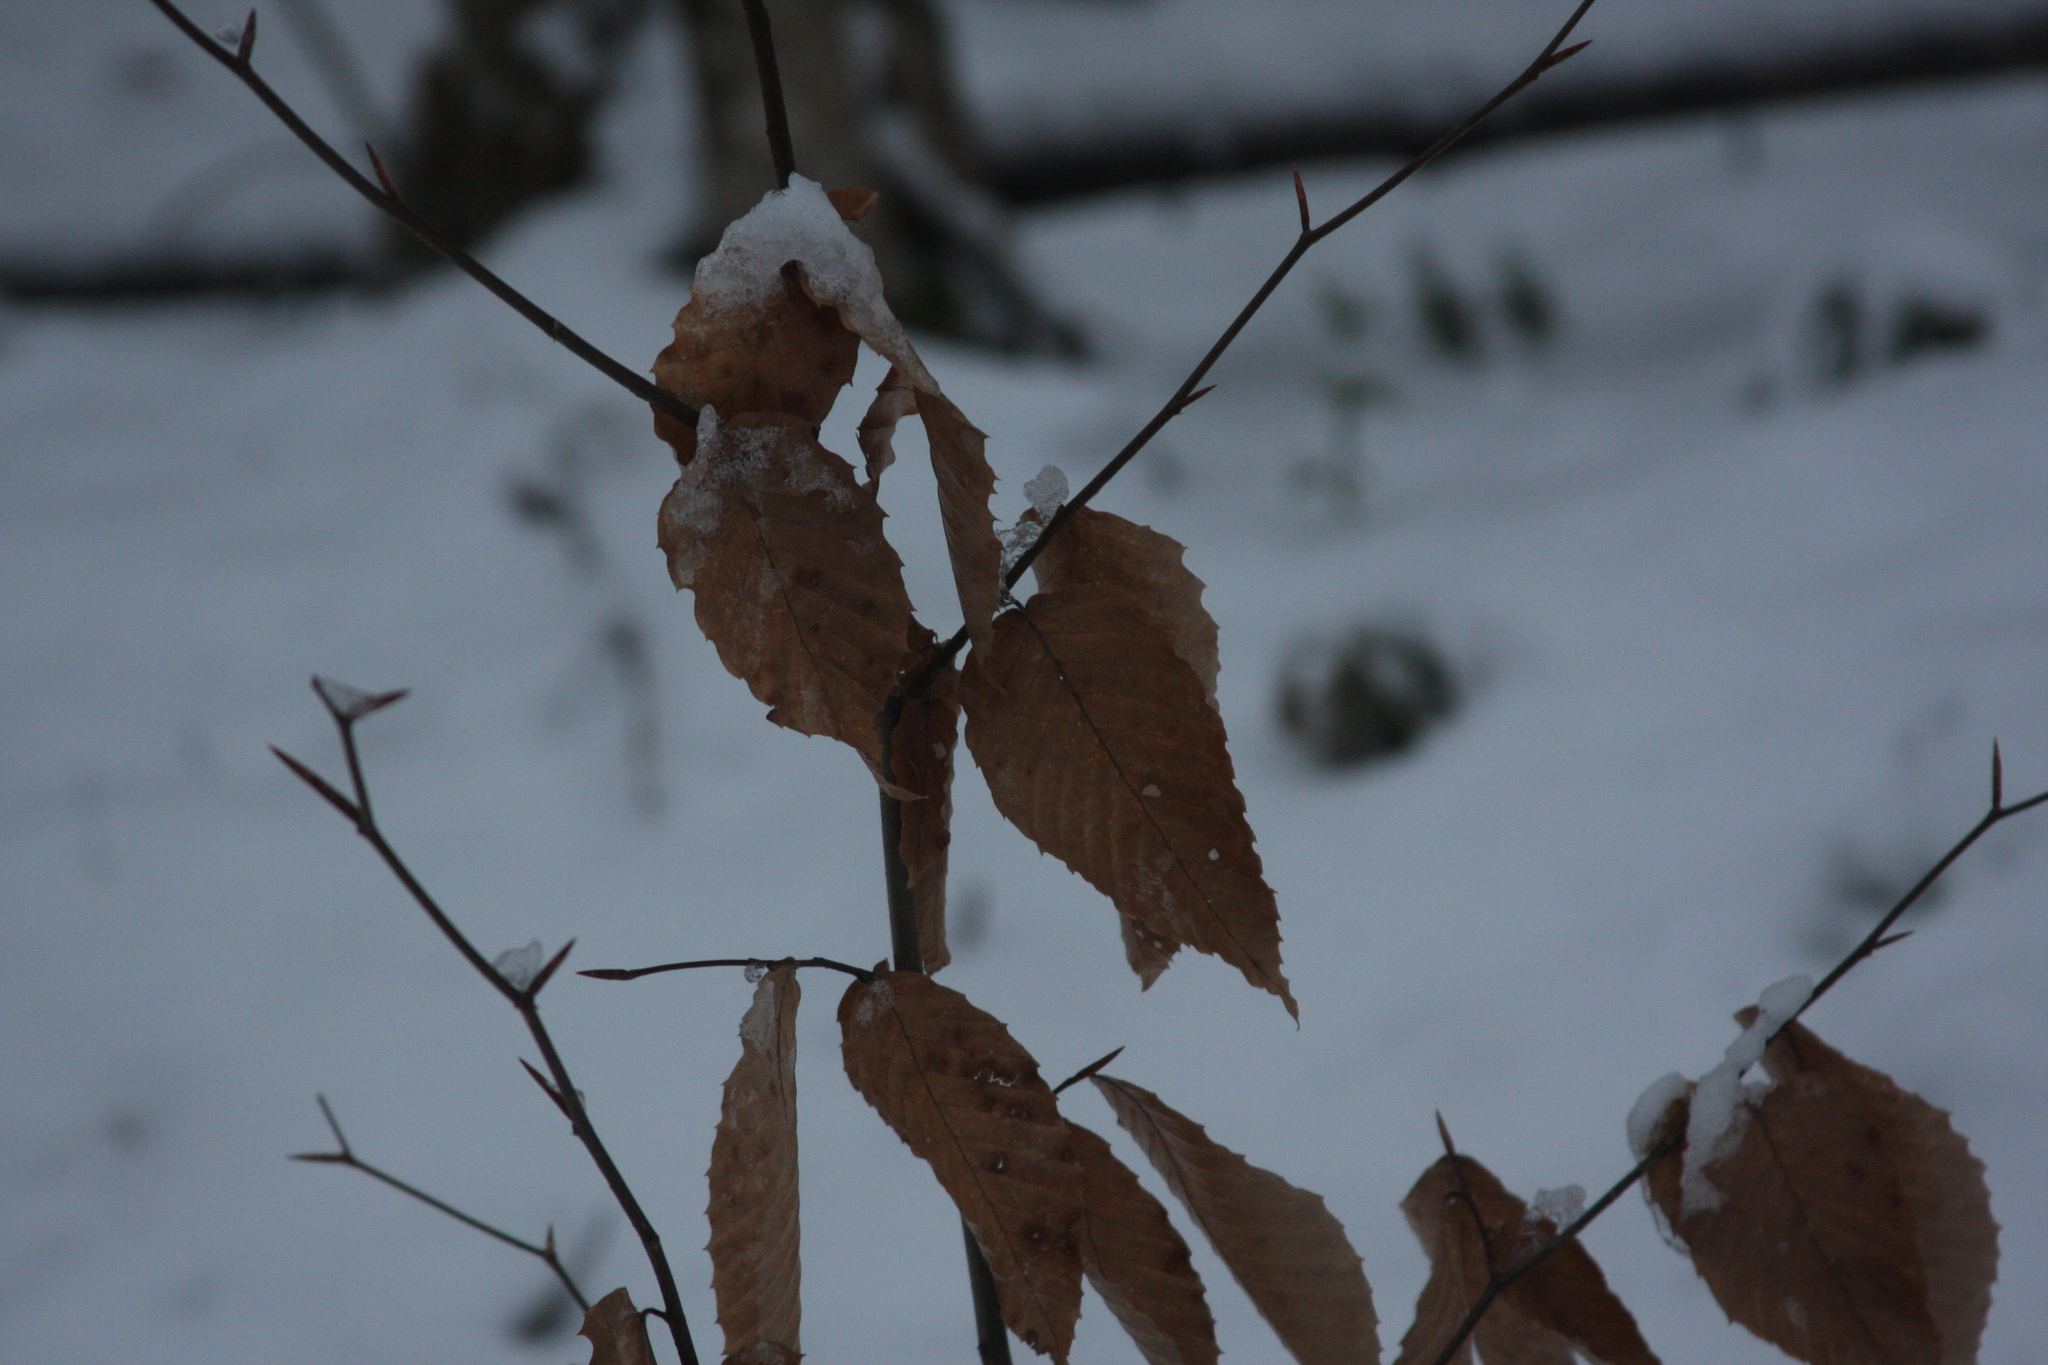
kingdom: Plantae
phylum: Tracheophyta
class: Magnoliopsida
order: Fagales
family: Fagaceae
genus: Fagus
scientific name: Fagus grandifolia
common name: American beech
